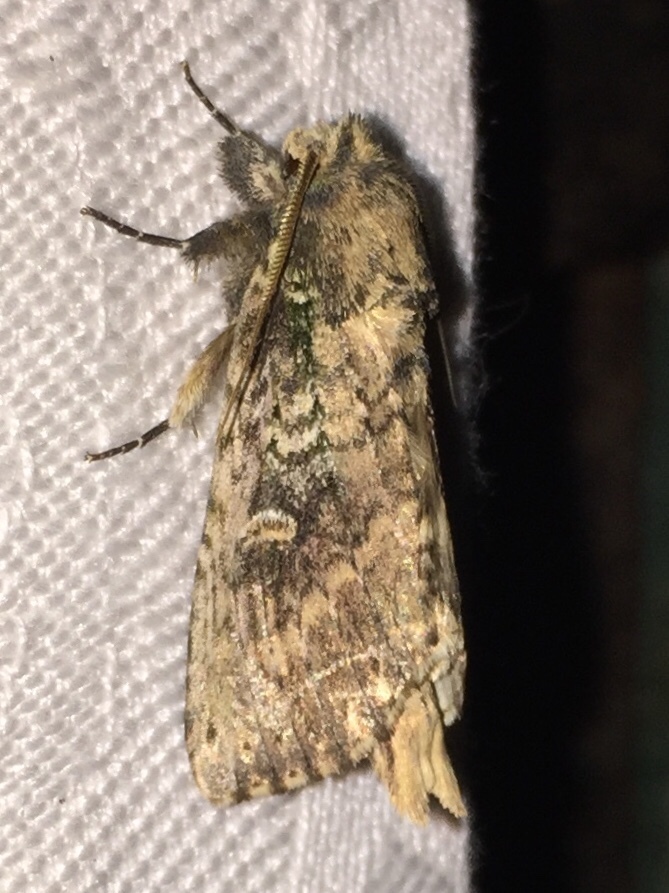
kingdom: Animalia
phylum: Arthropoda
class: Insecta
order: Lepidoptera
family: Notodontidae
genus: Schizura
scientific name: Schizura ipomaeae
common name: Morning-glory prominent
